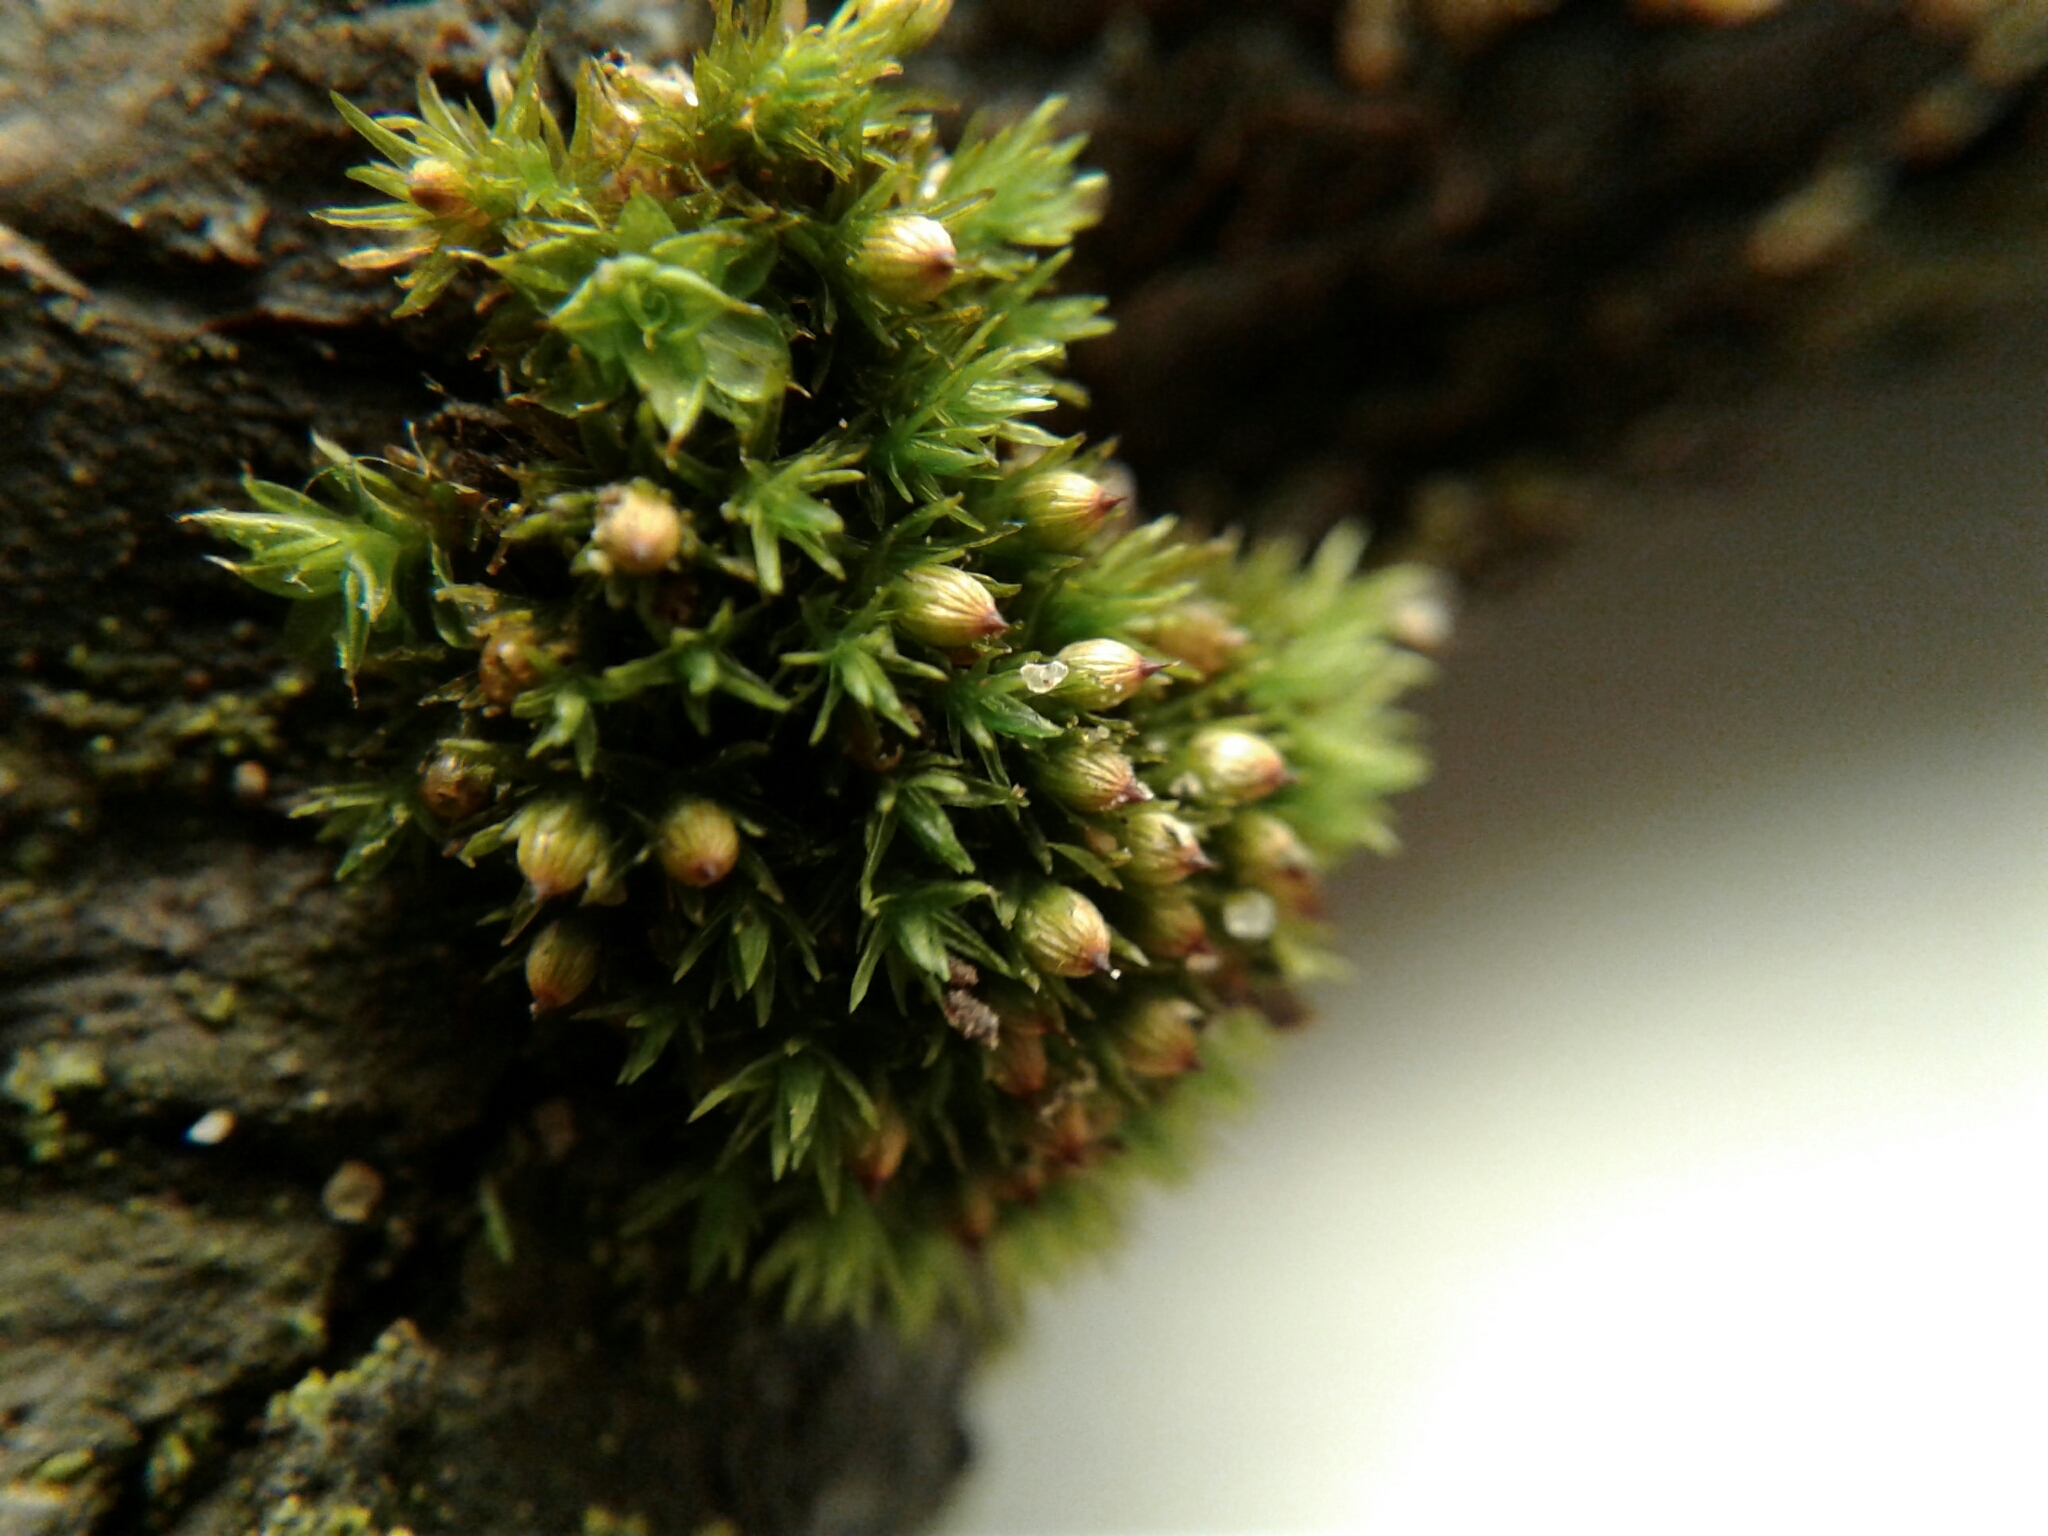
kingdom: Plantae
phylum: Bryophyta
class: Bryopsida
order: Orthotrichales
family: Orthotrichaceae
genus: Orthotrichum
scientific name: Orthotrichum stellatum
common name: Starlike bristle moss
